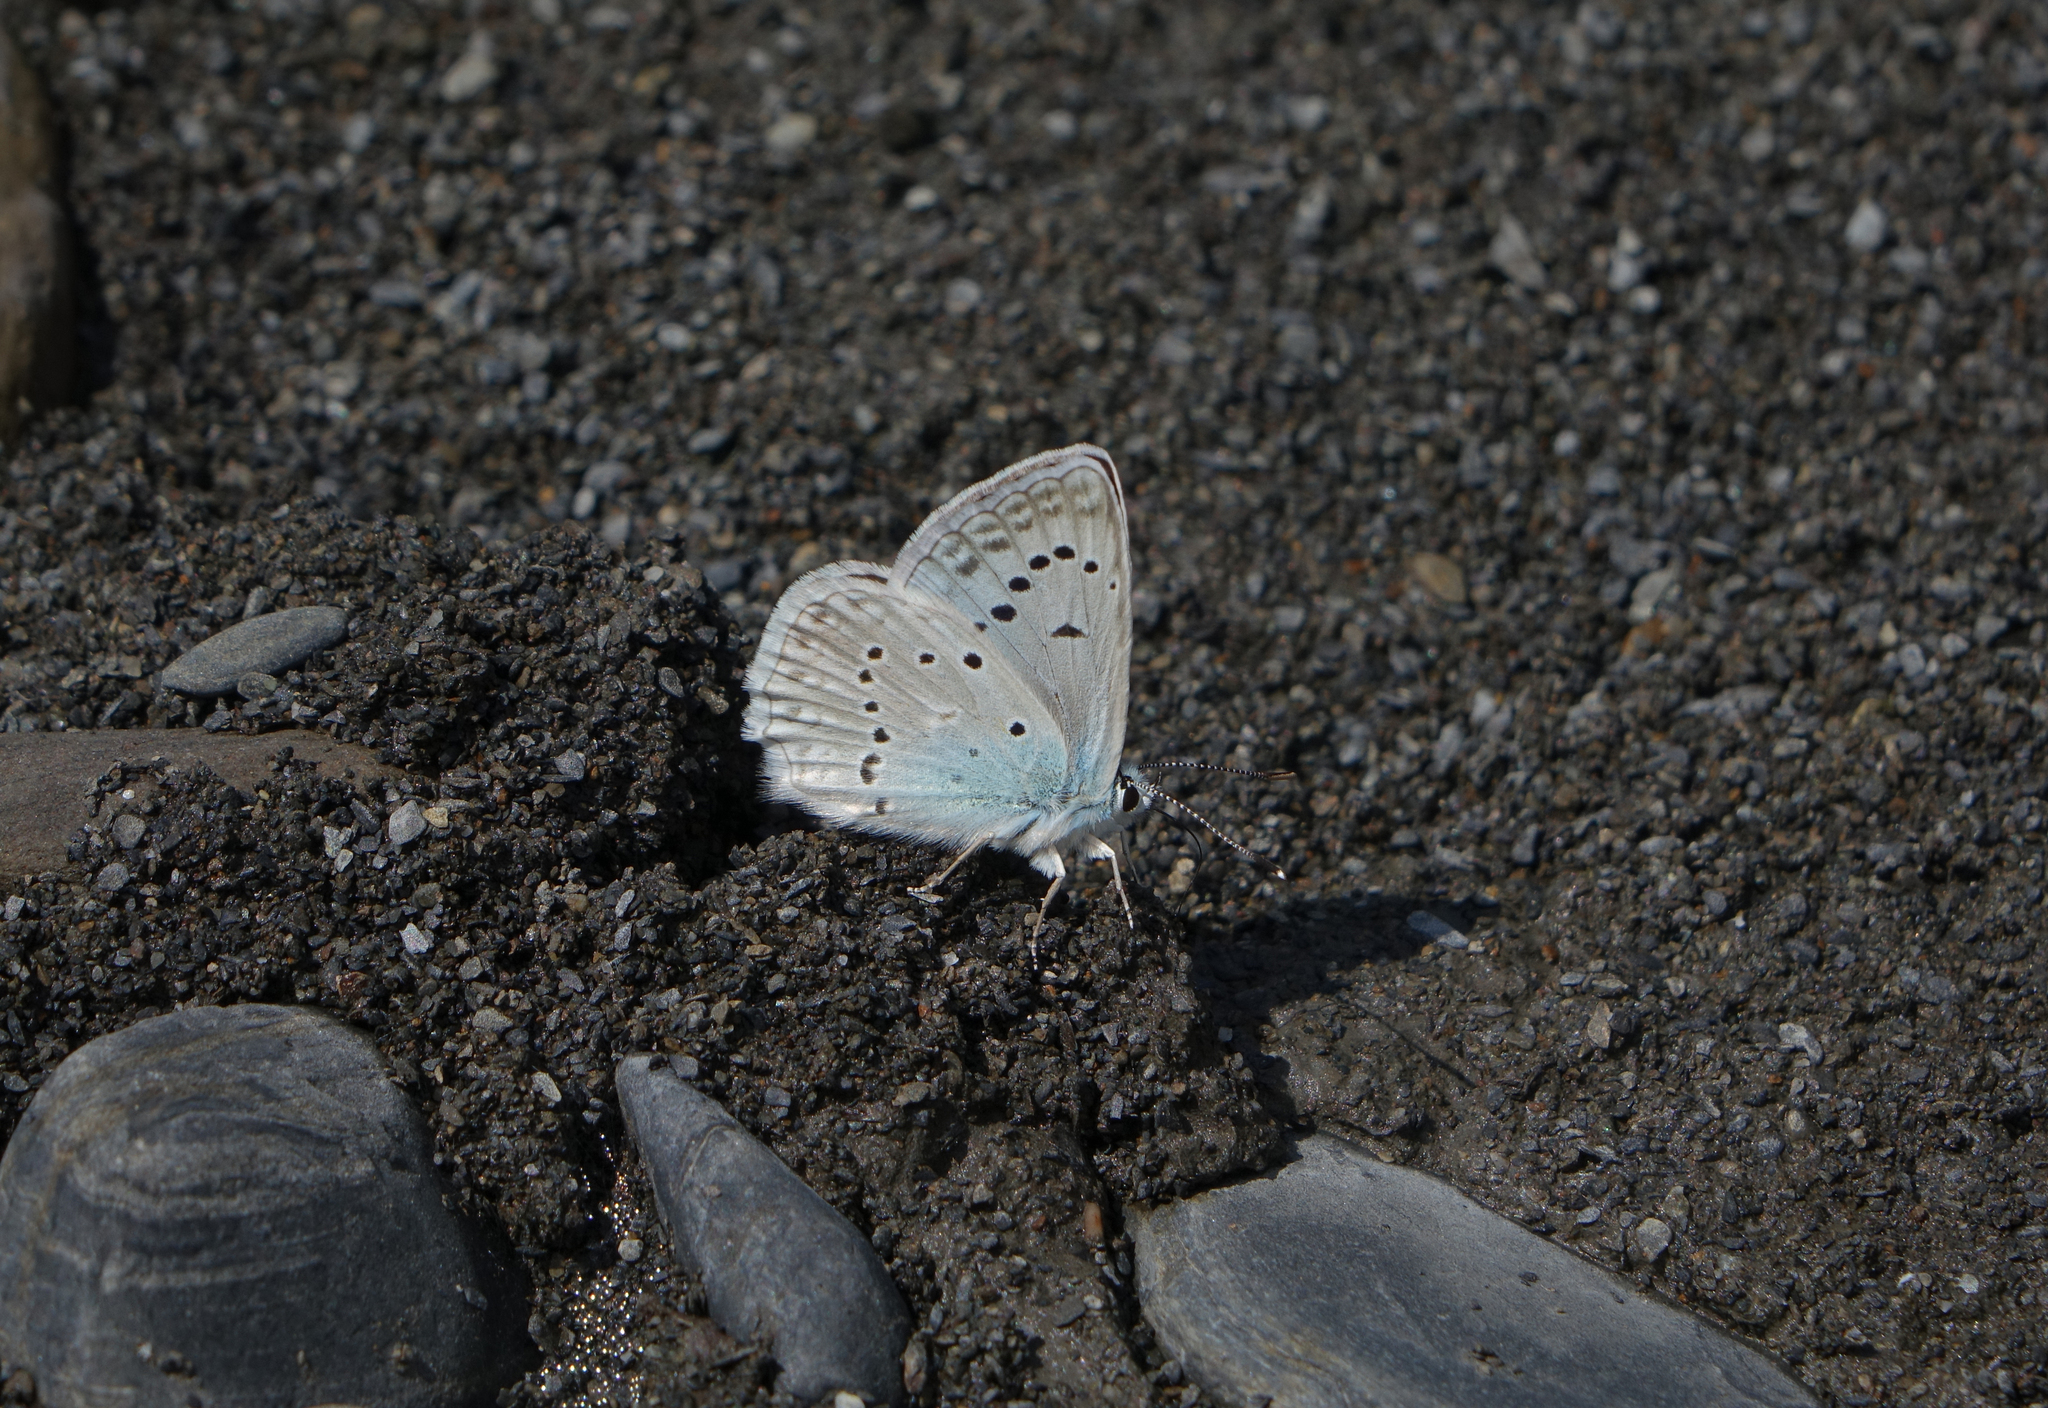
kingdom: Animalia
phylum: Arthropoda
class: Insecta
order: Lepidoptera
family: Lycaenidae
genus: Polyommatus
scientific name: Polyommatus daphnis
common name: Meleager's blue
